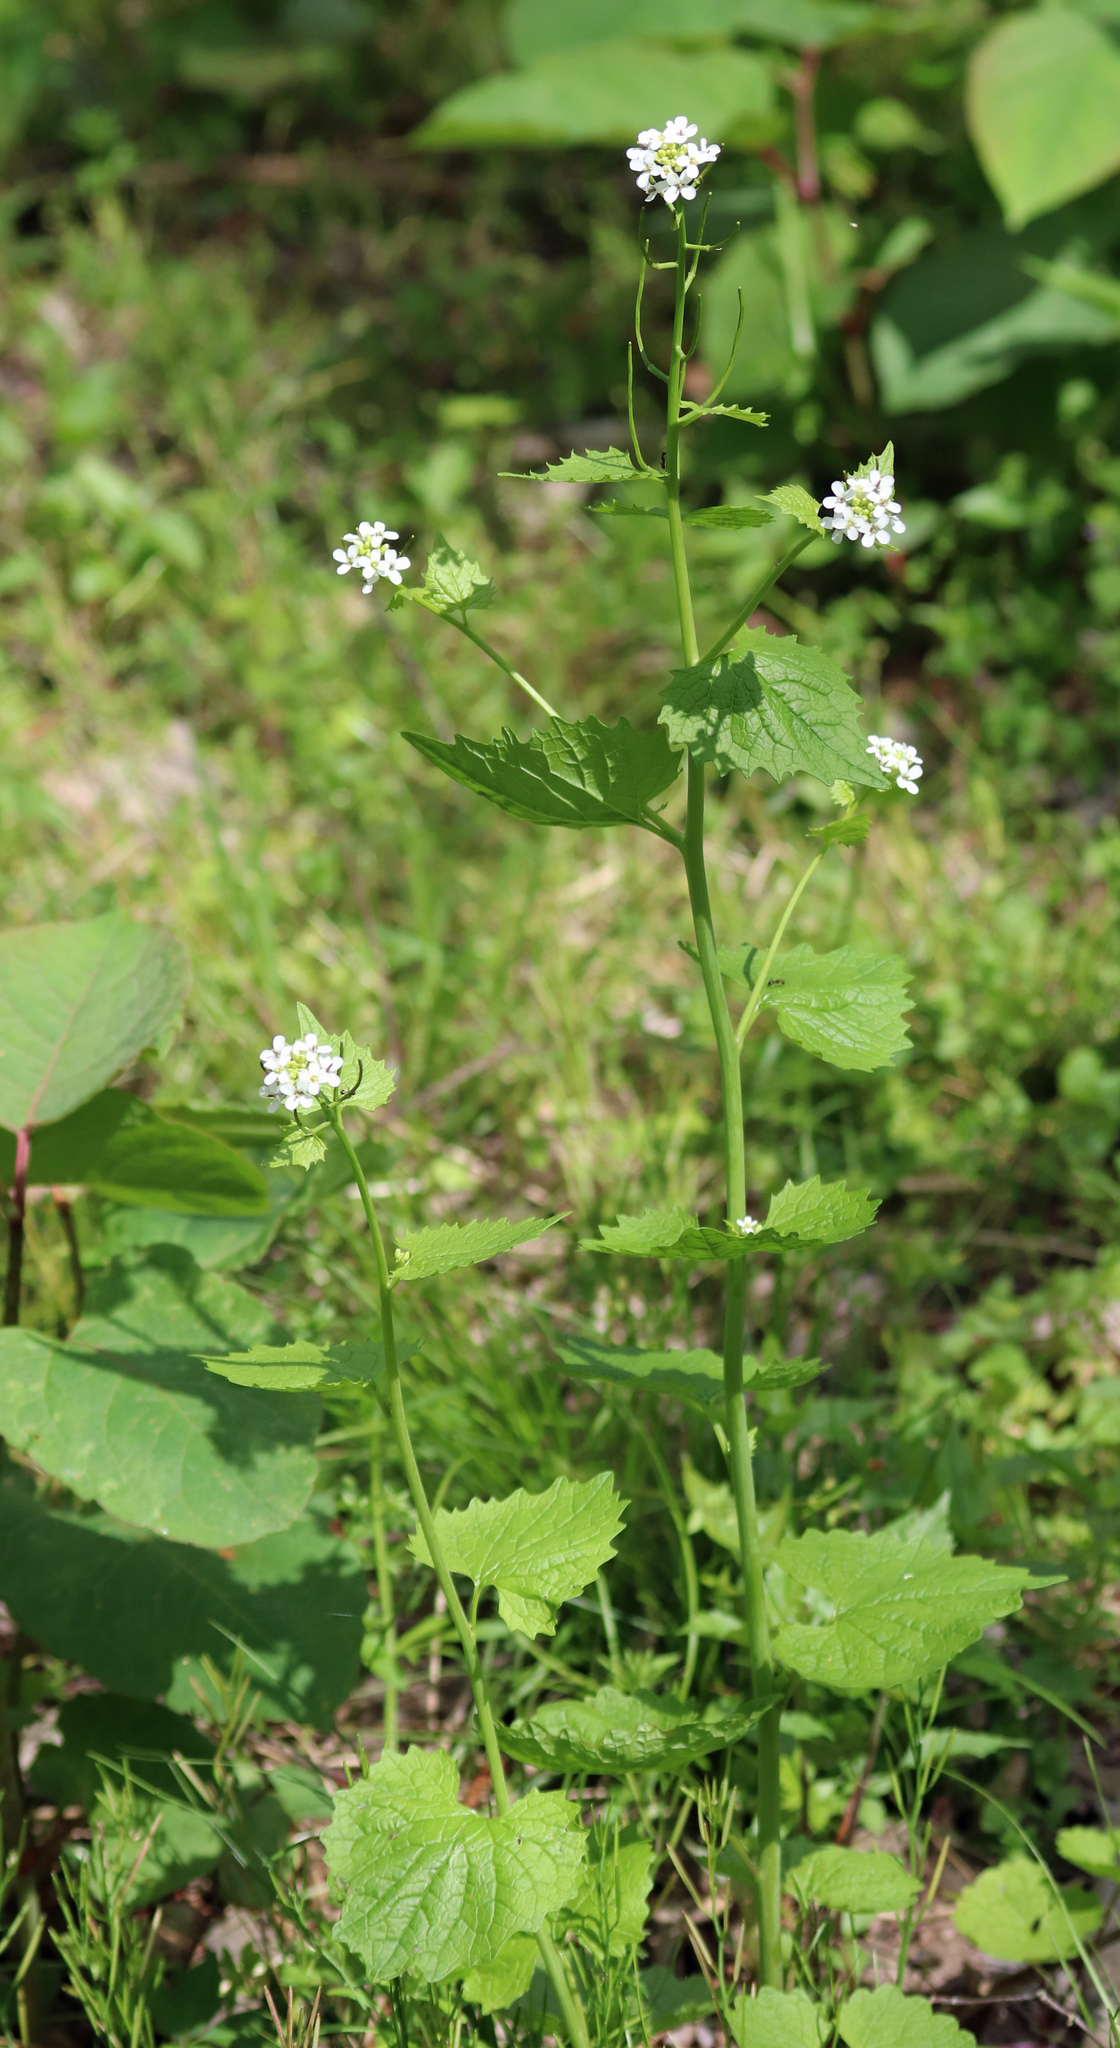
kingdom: Plantae
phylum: Tracheophyta
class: Magnoliopsida
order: Brassicales
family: Brassicaceae
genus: Alliaria
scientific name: Alliaria petiolata
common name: Garlic mustard
